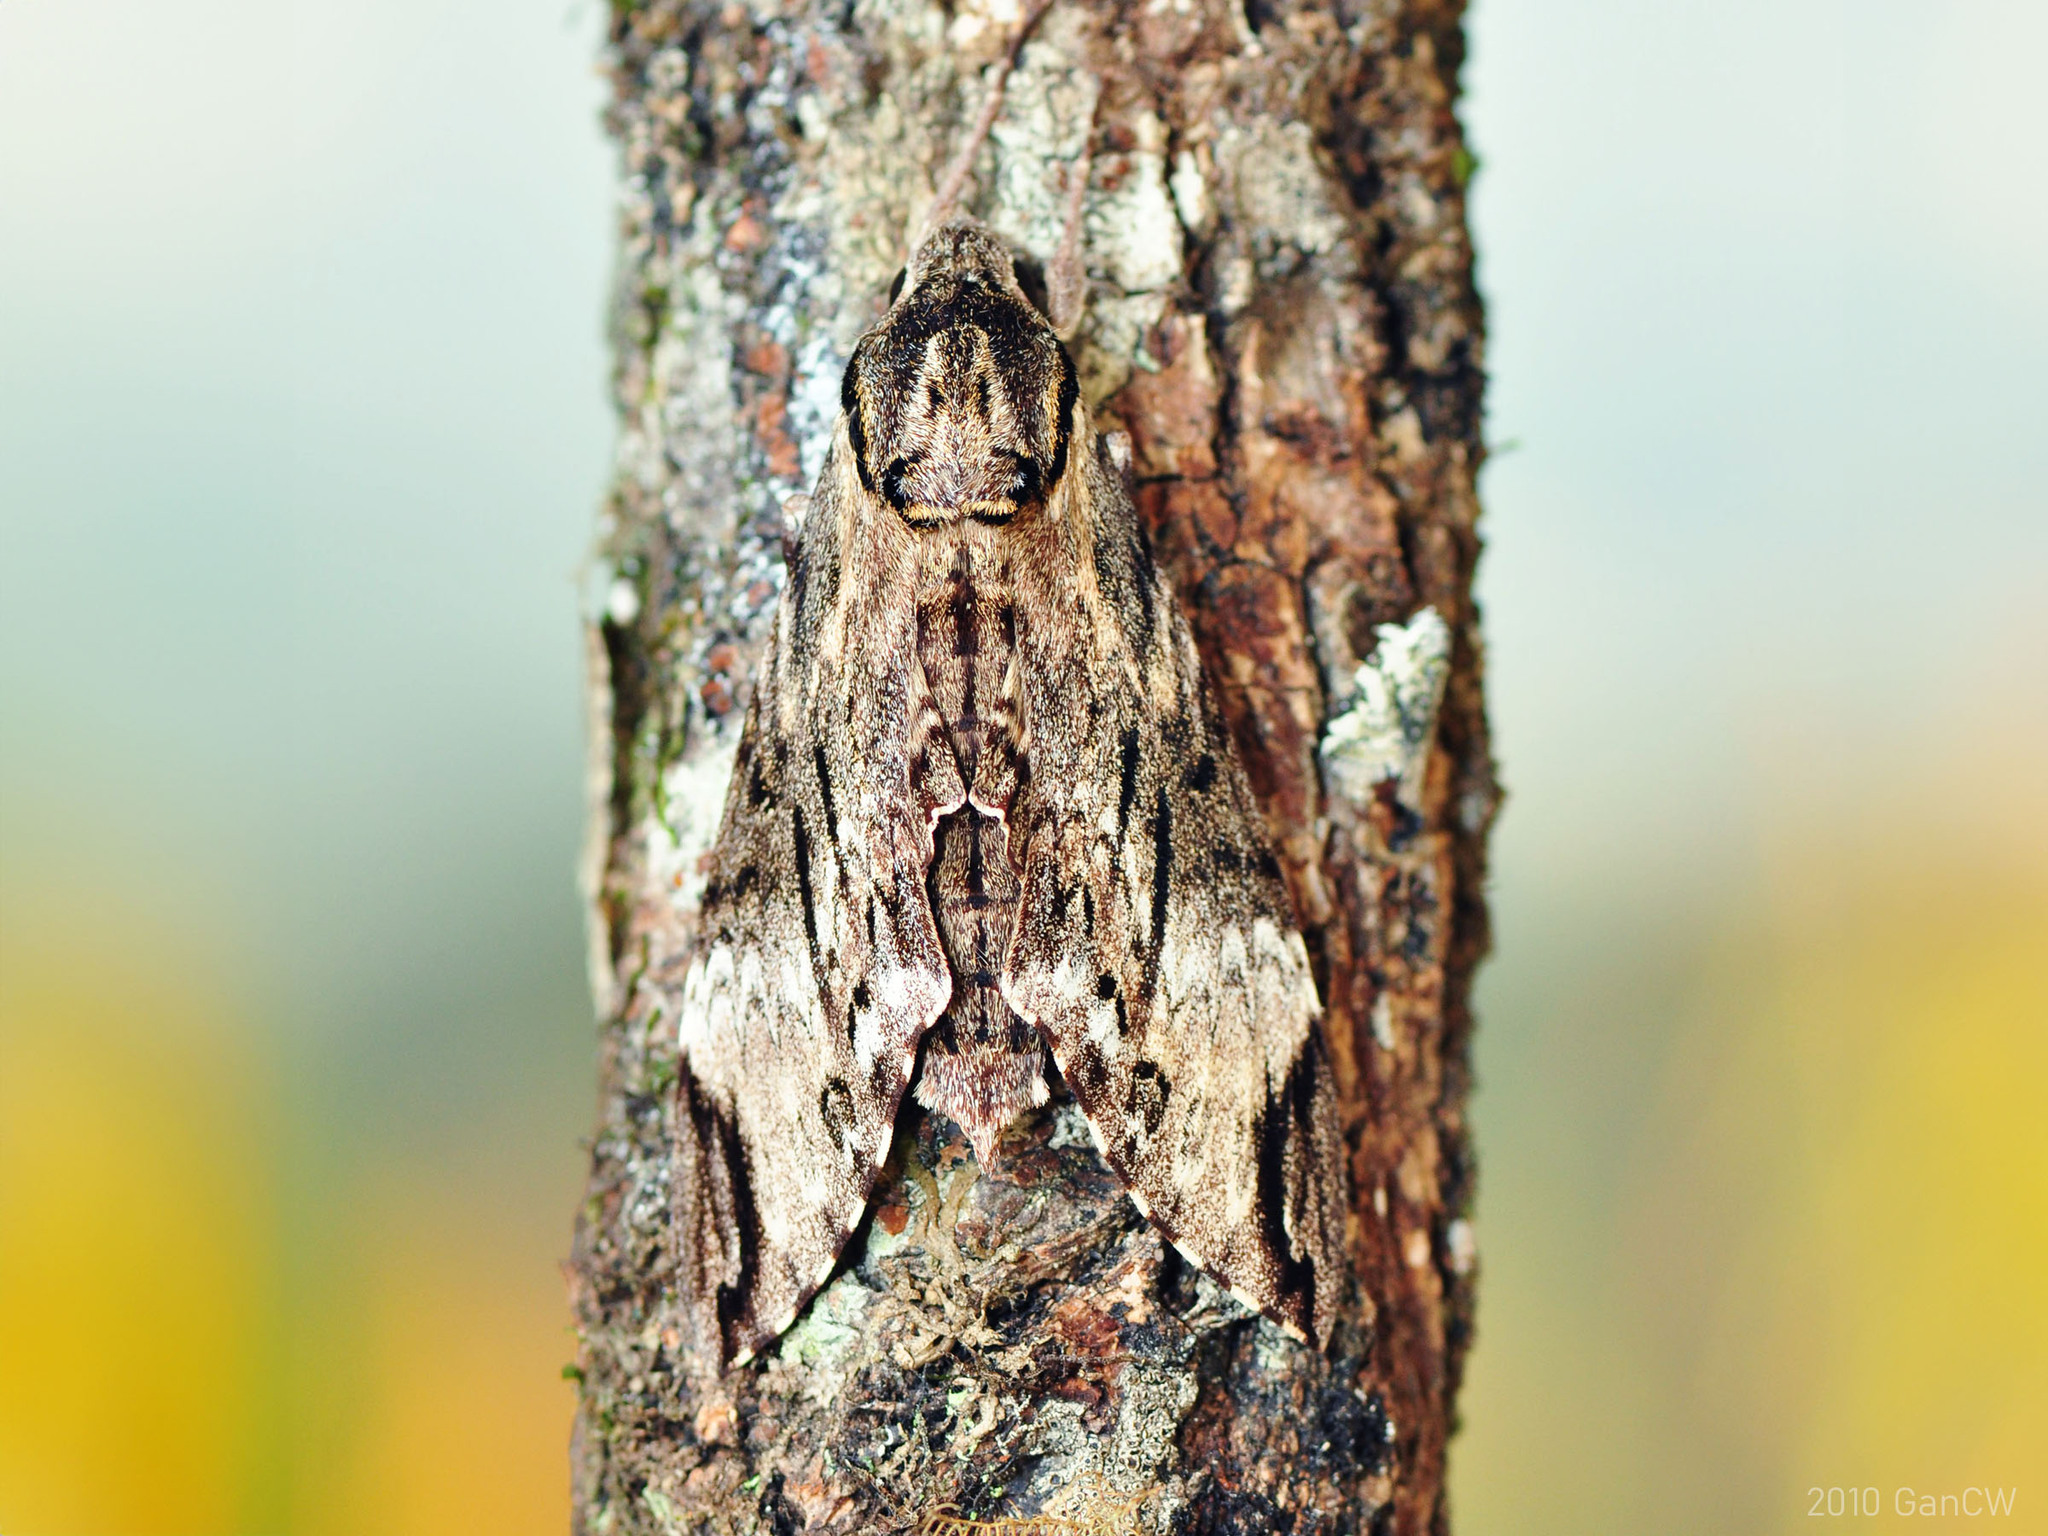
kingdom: Animalia
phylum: Arthropoda
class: Insecta
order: Lepidoptera
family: Sphingidae
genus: Psilogramma
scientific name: Psilogramma menephron
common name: Gray hawk moth
